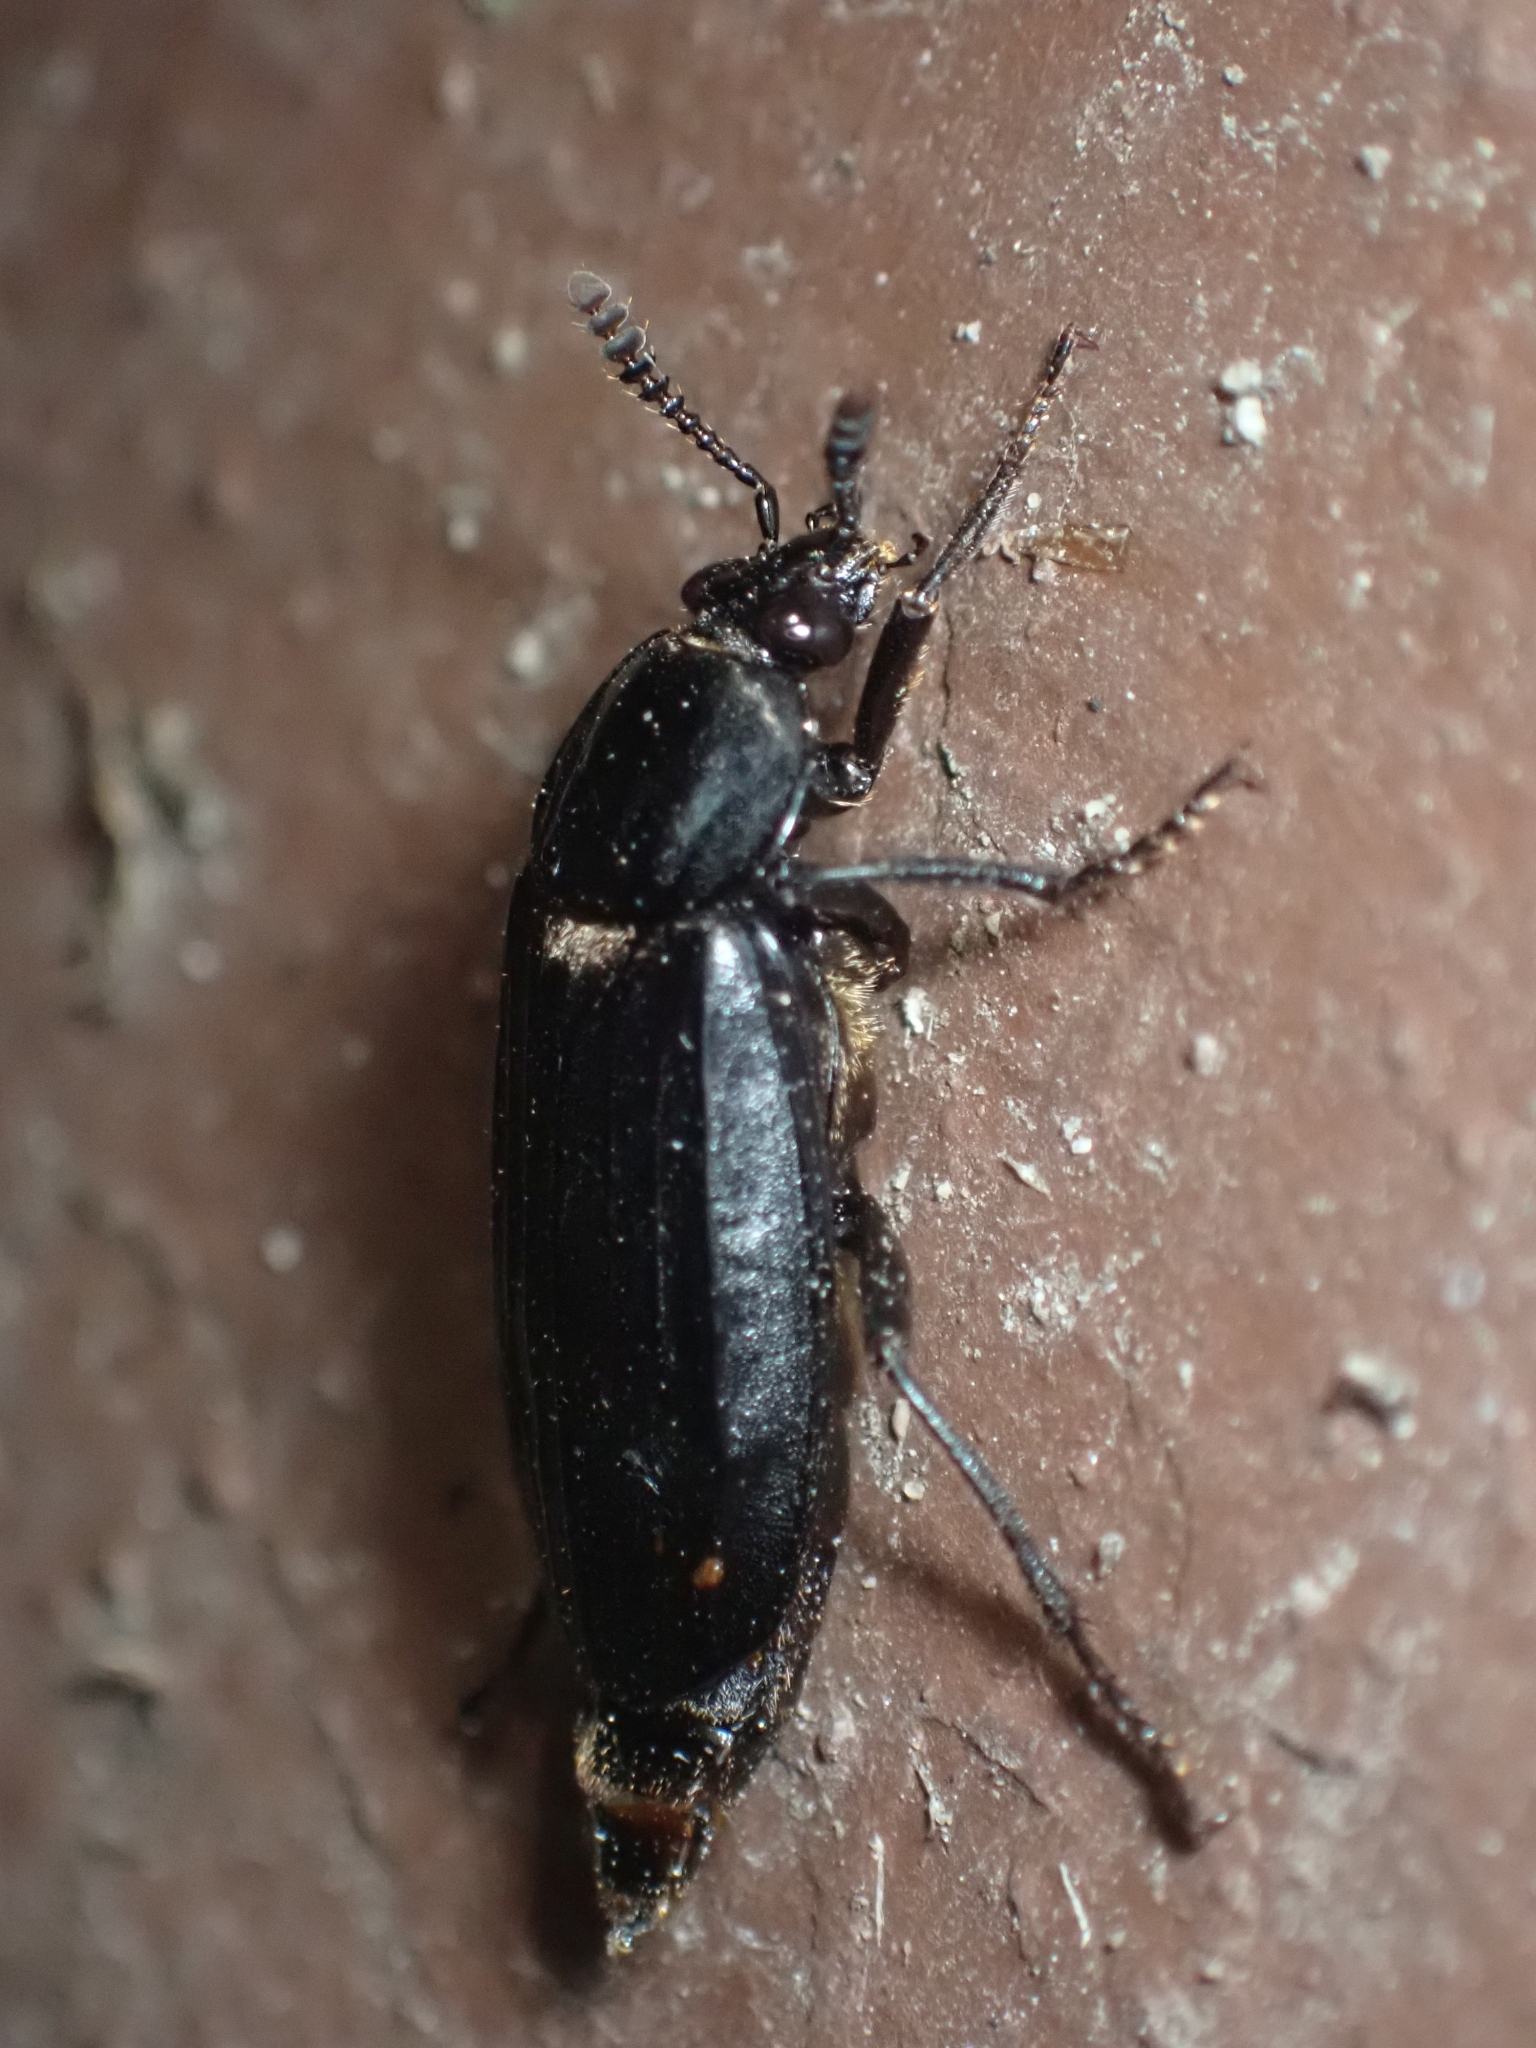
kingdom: Animalia
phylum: Arthropoda
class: Insecta
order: Coleoptera
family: Staphylinidae
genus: Necrodes
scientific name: Necrodes surinamensis
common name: Red-lined carrion beetle
